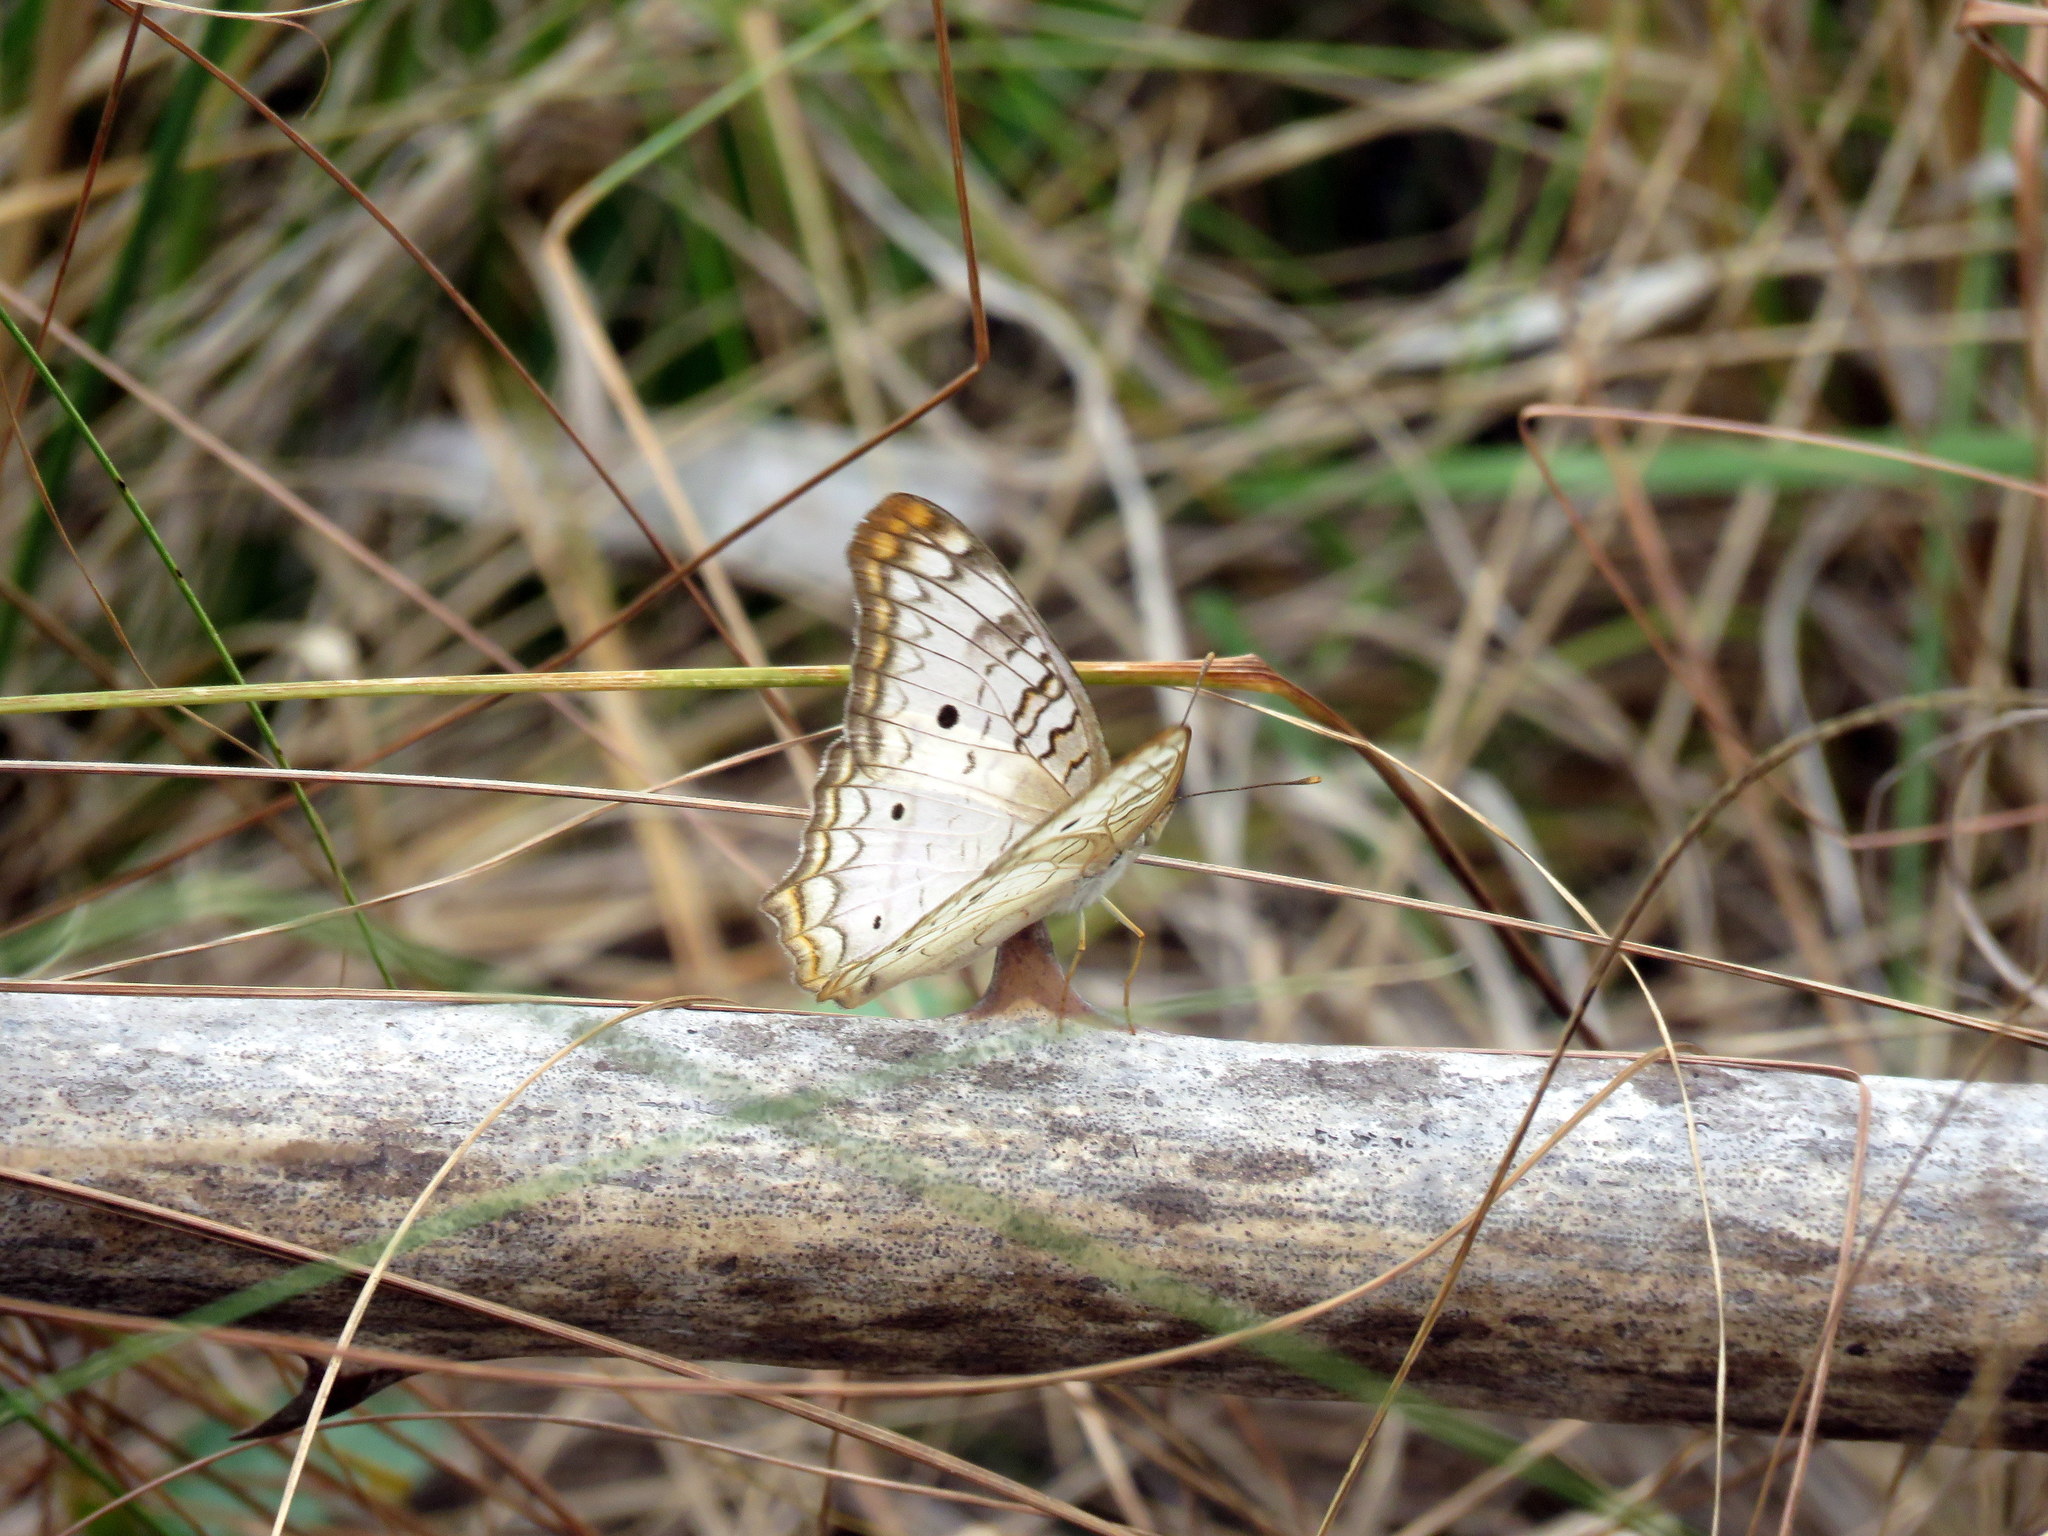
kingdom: Animalia
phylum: Arthropoda
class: Insecta
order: Lepidoptera
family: Nymphalidae
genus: Anartia
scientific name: Anartia jatrophae
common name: White peacock
